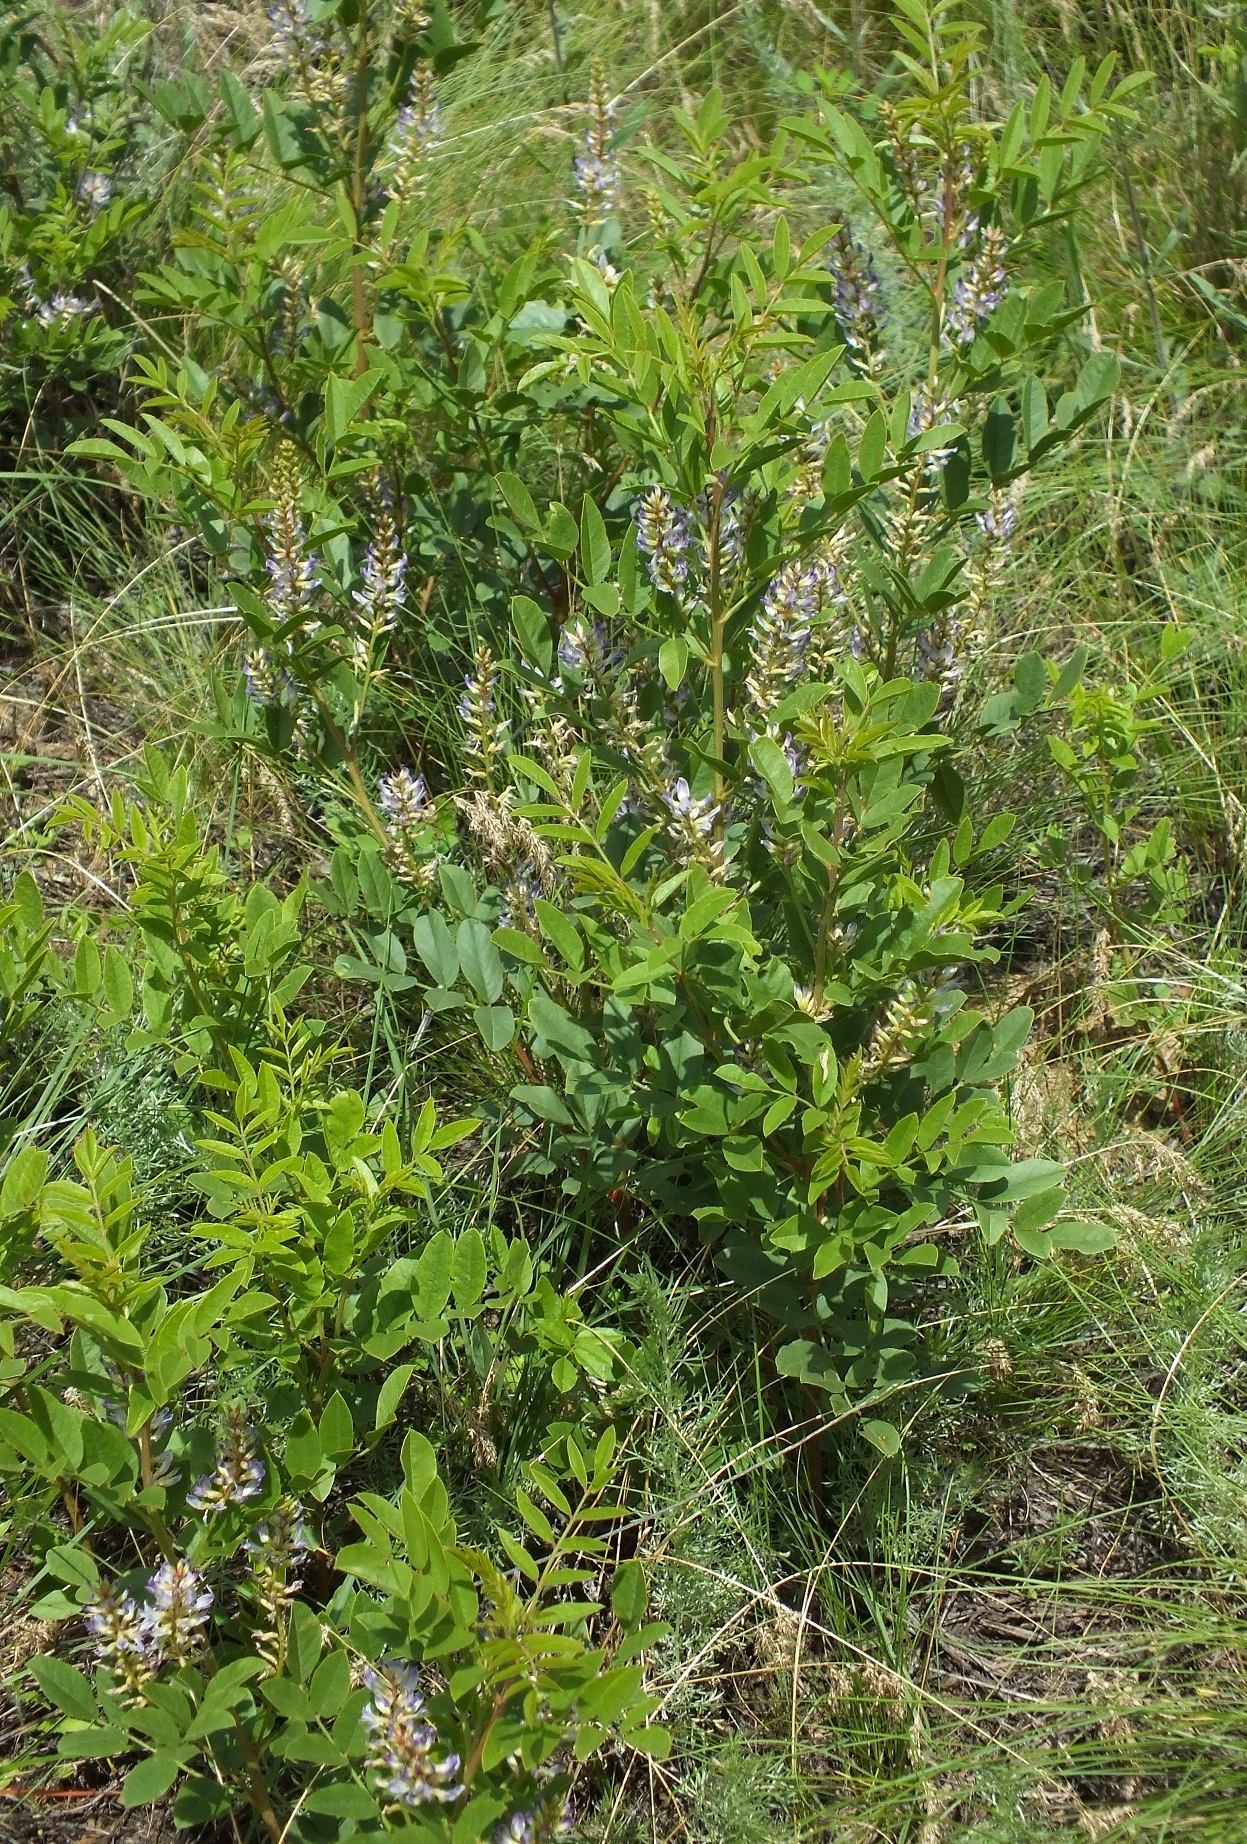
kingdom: Plantae
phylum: Tracheophyta
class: Magnoliopsida
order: Fabales
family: Fabaceae
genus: Glycyrrhiza
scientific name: Glycyrrhiza glabra
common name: Liquorice
